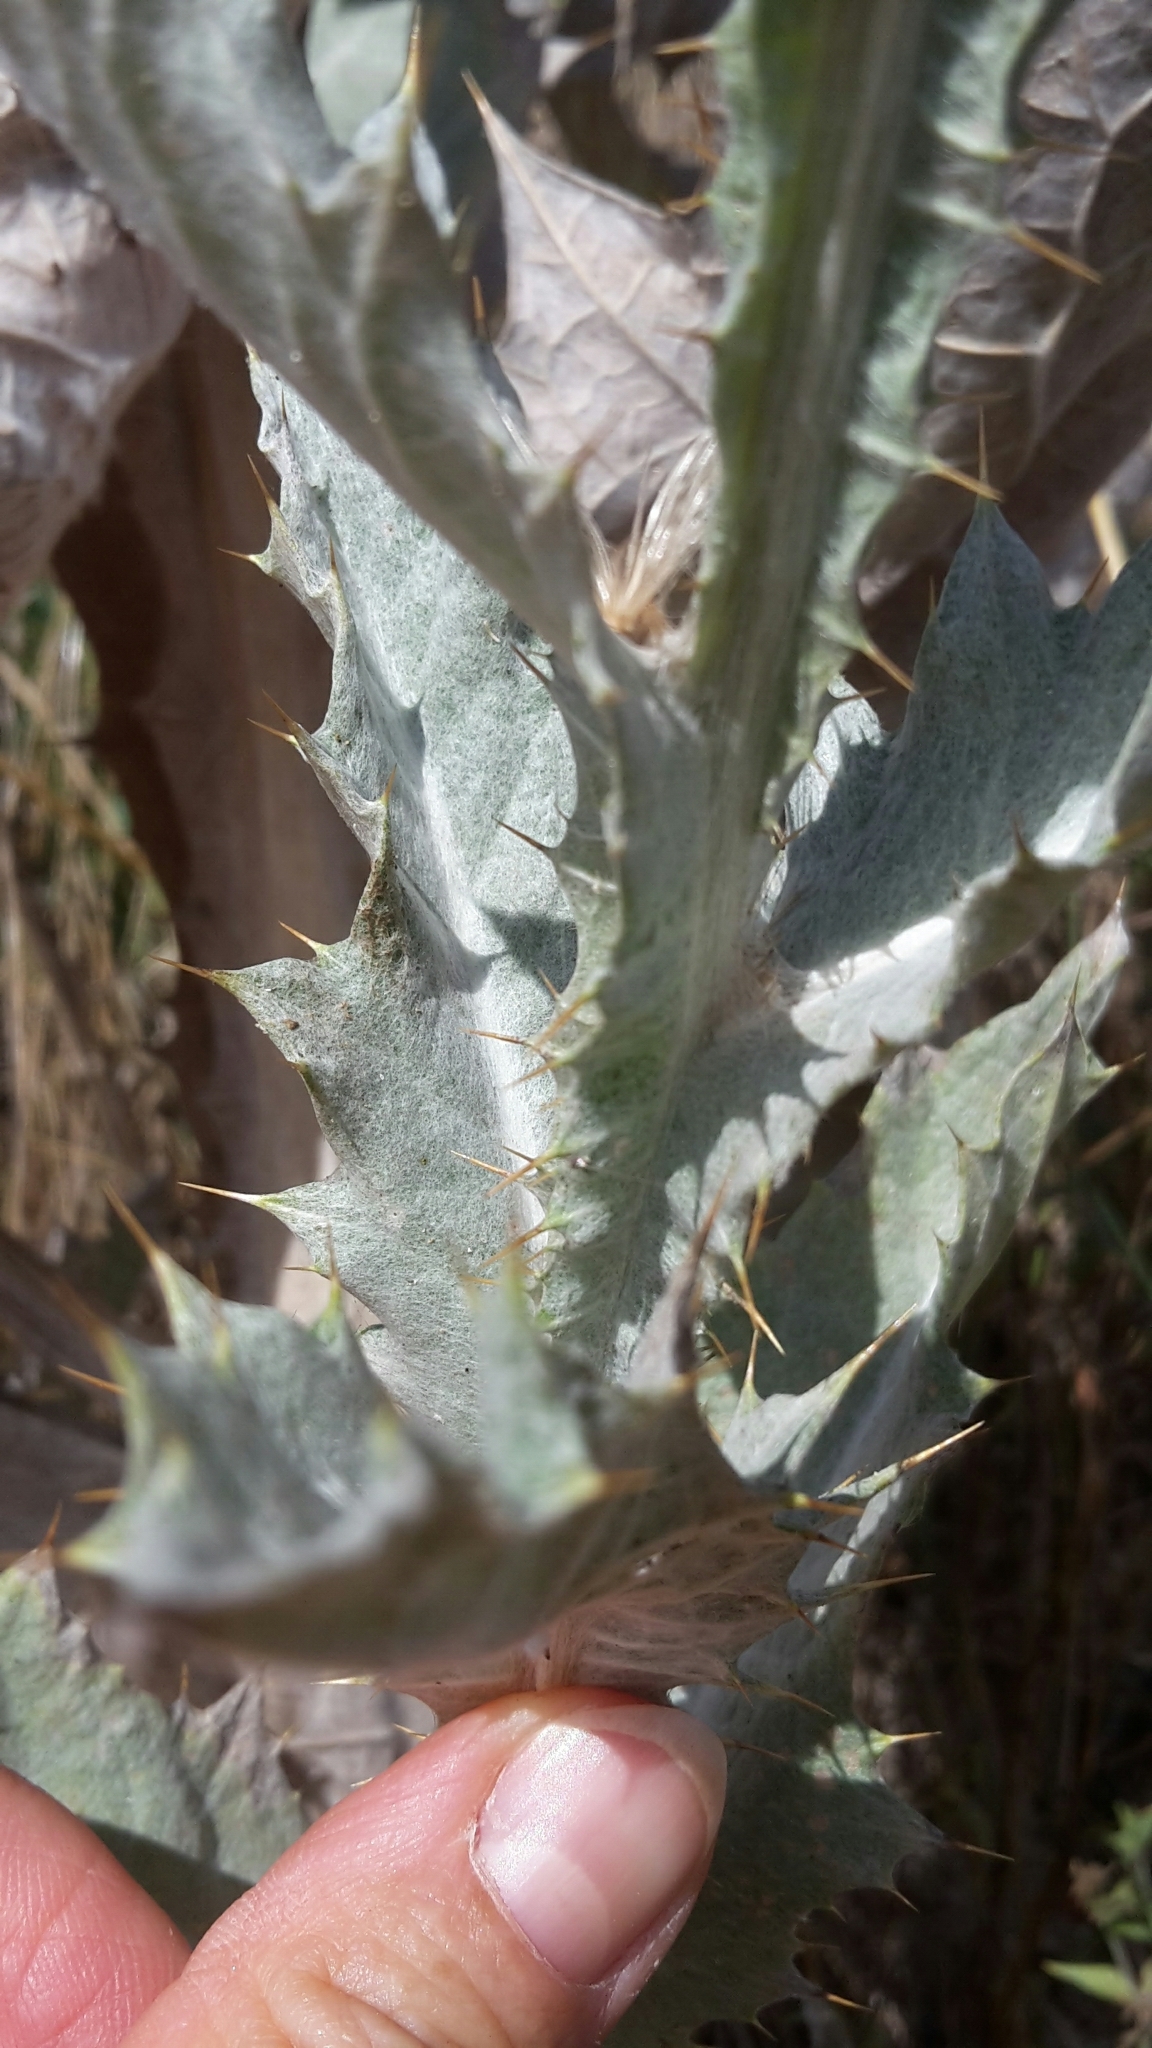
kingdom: Plantae
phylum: Tracheophyta
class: Magnoliopsida
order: Asterales
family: Asteraceae
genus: Onopordum
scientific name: Onopordum acanthium
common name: Scotch thistle
